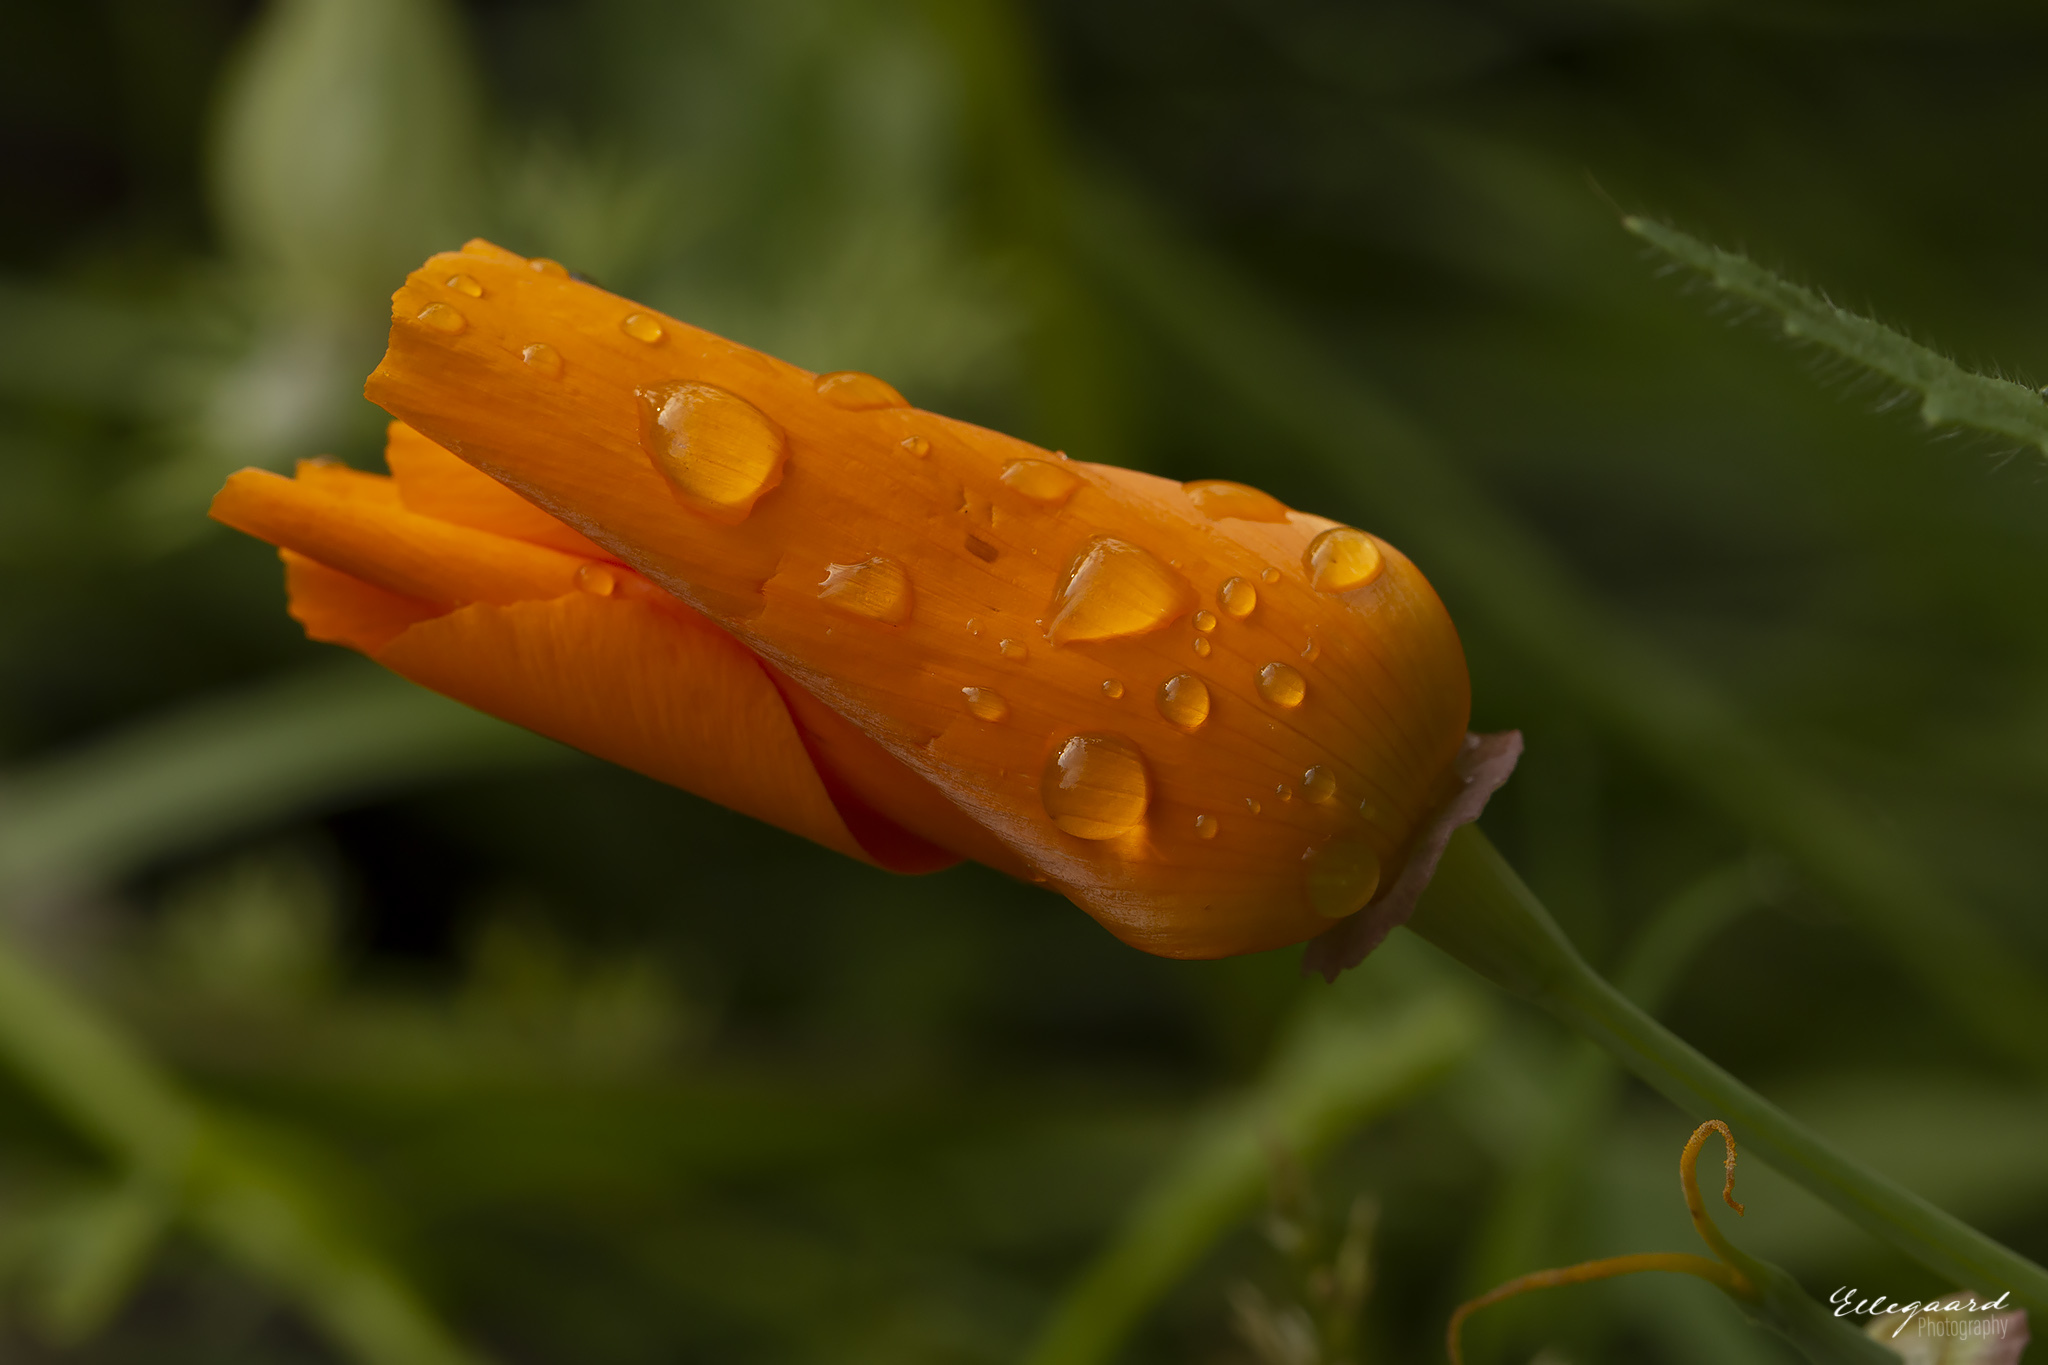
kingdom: Plantae
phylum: Tracheophyta
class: Magnoliopsida
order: Ranunculales
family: Papaveraceae
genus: Eschscholzia
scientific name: Eschscholzia californica
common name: California poppy
